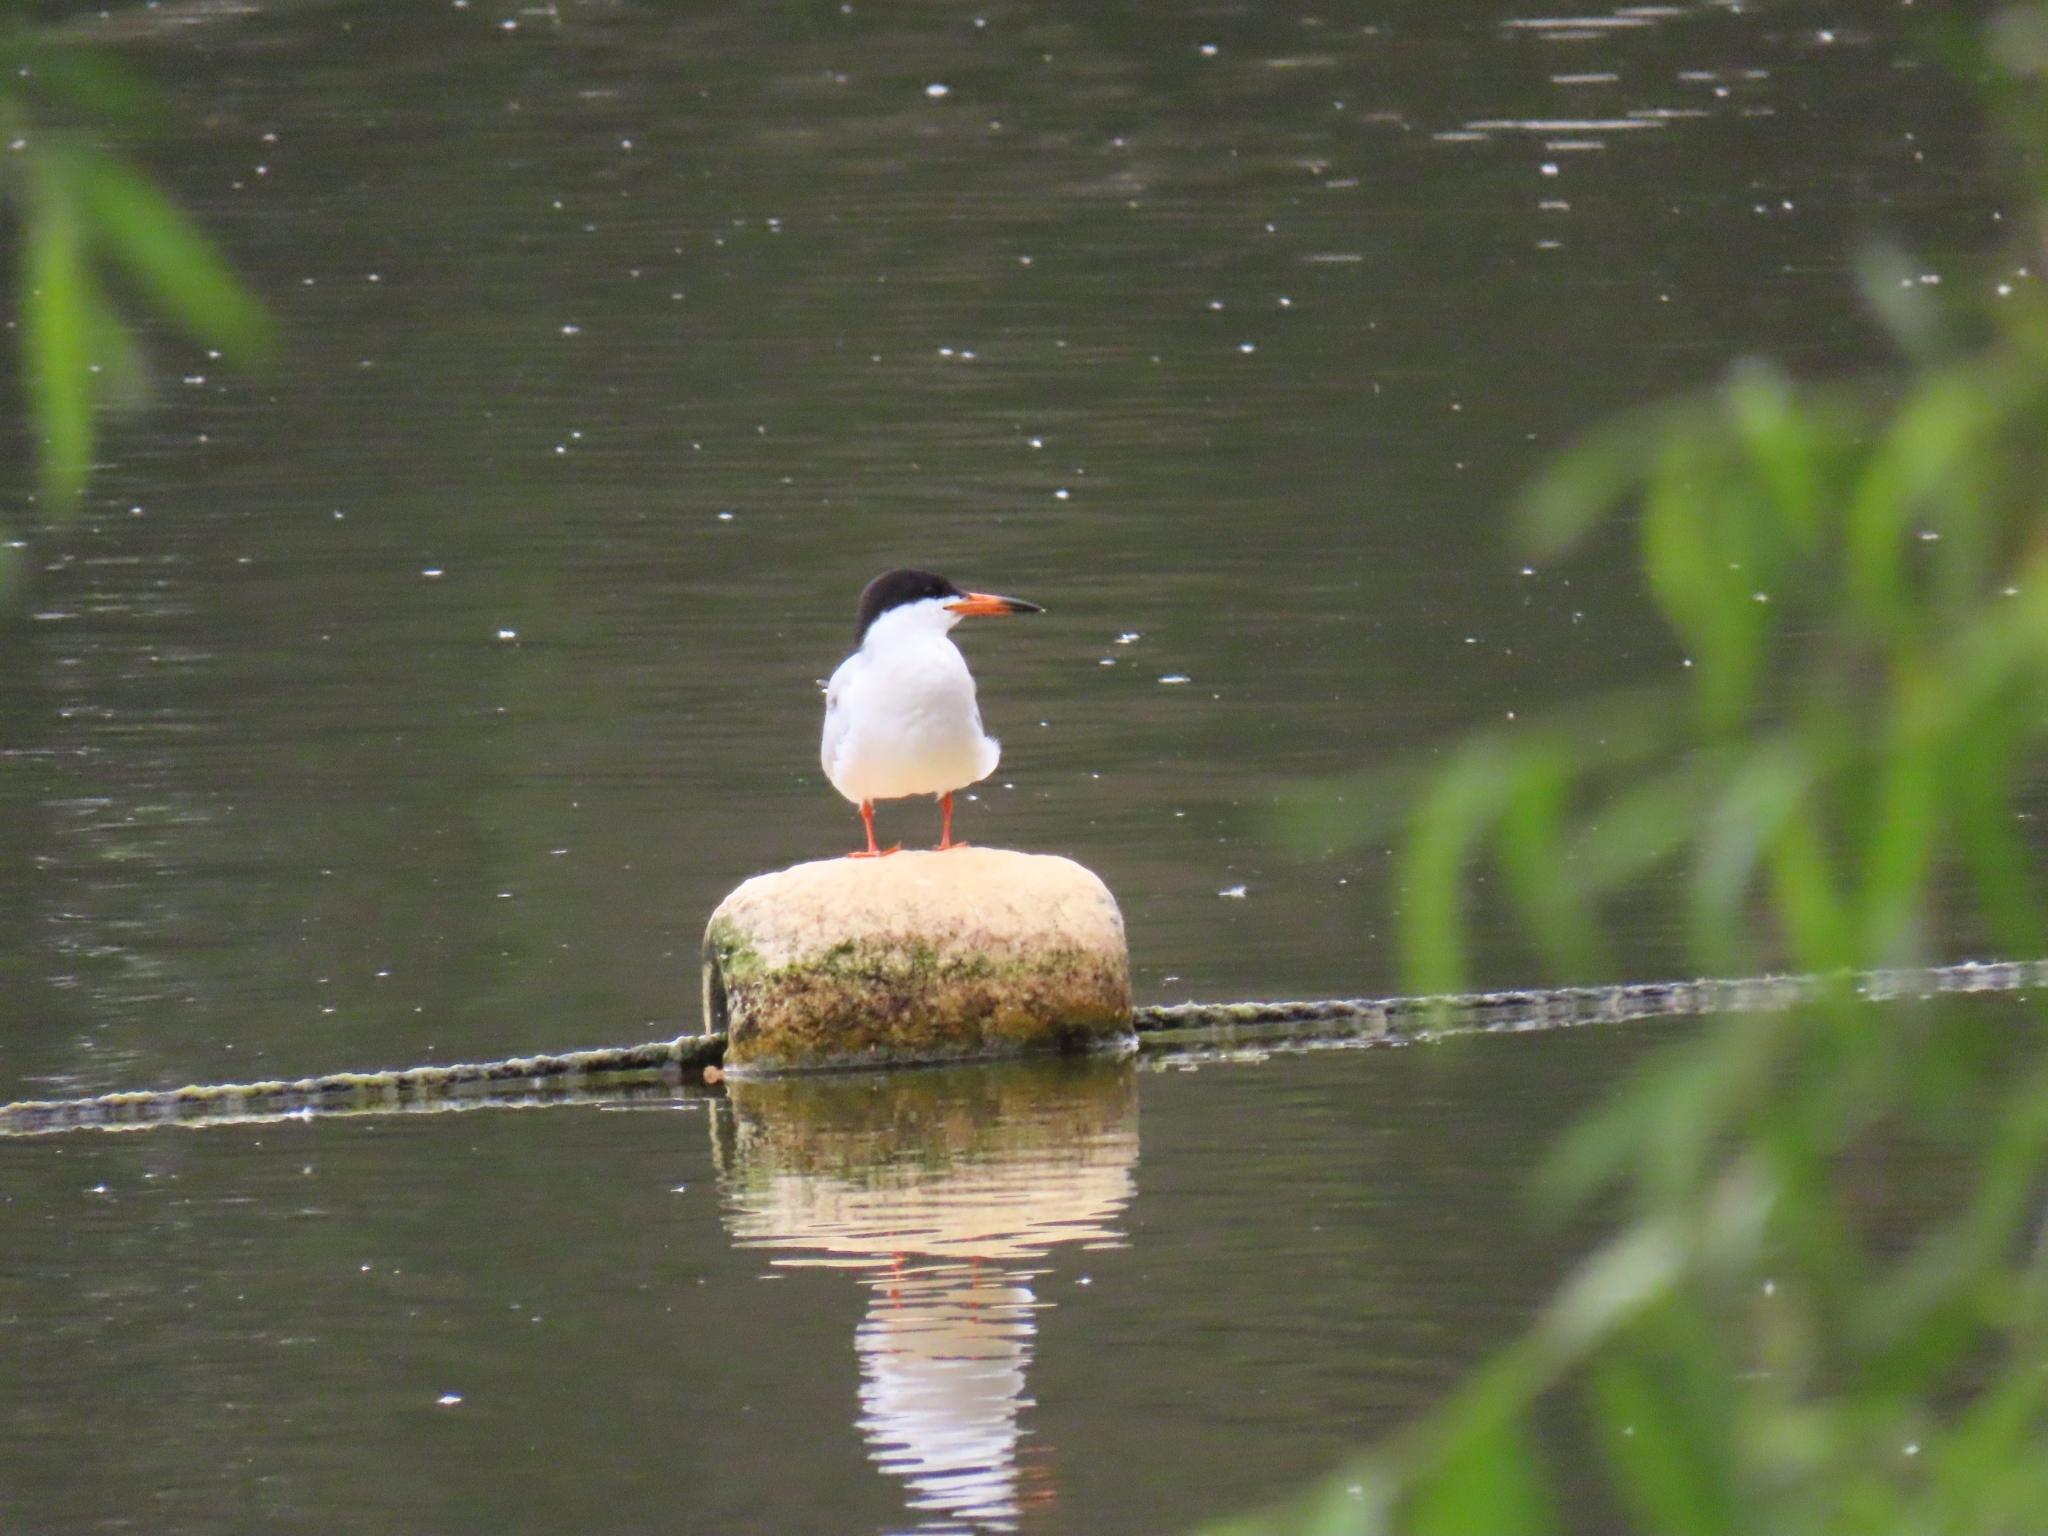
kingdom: Animalia
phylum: Chordata
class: Aves
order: Charadriiformes
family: Laridae
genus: Sterna
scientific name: Sterna forsteri
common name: Forster's tern
